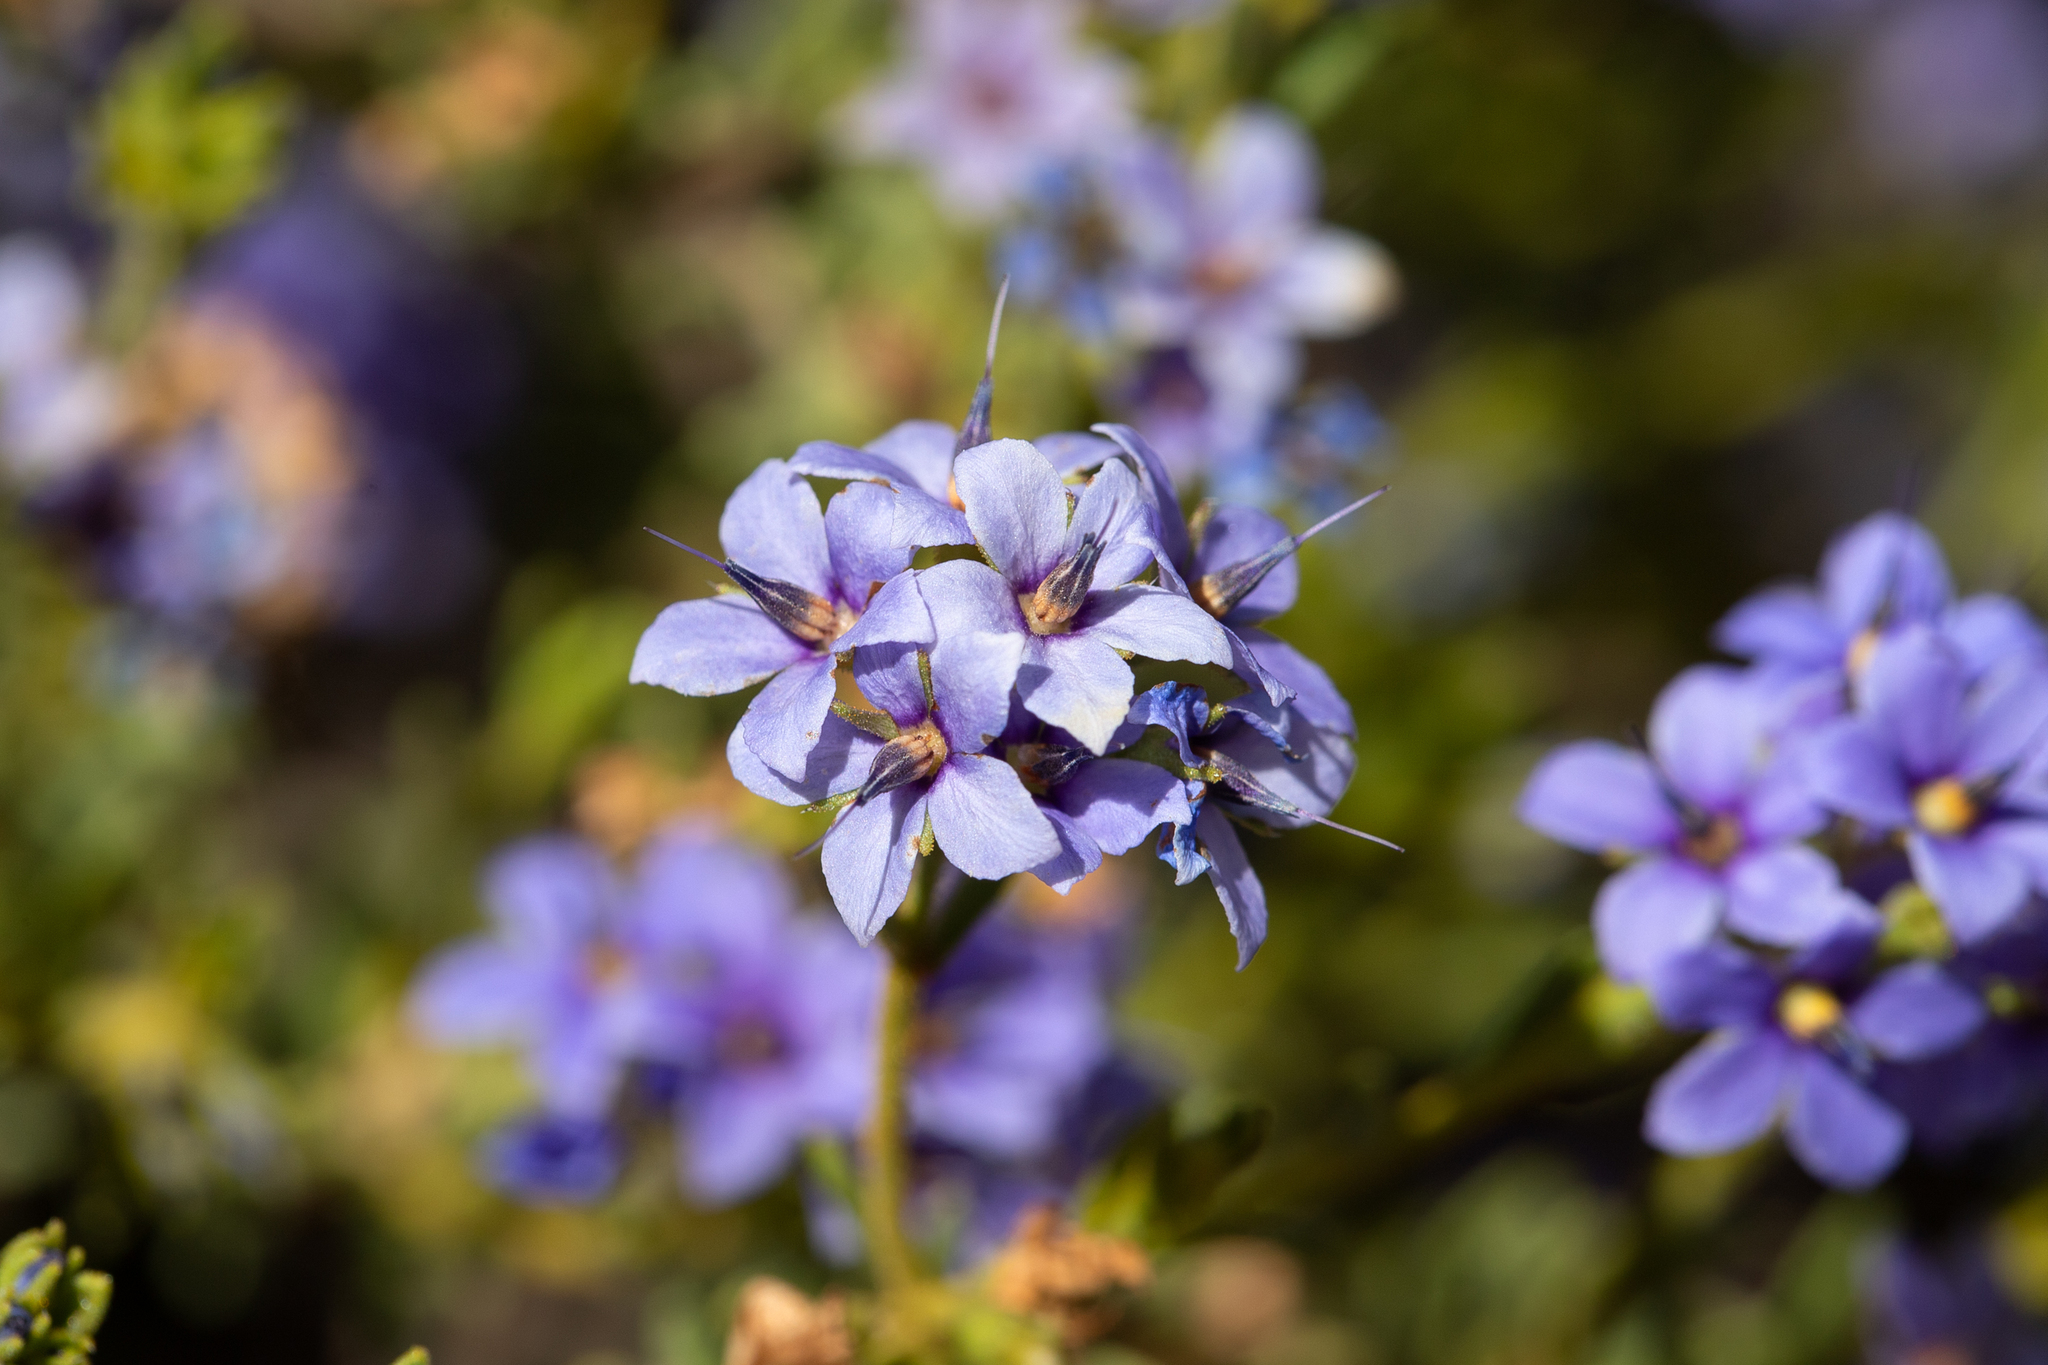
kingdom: Plantae
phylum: Tracheophyta
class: Magnoliopsida
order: Boraginales
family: Ehretiaceae
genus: Halgania
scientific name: Halgania cyanea
